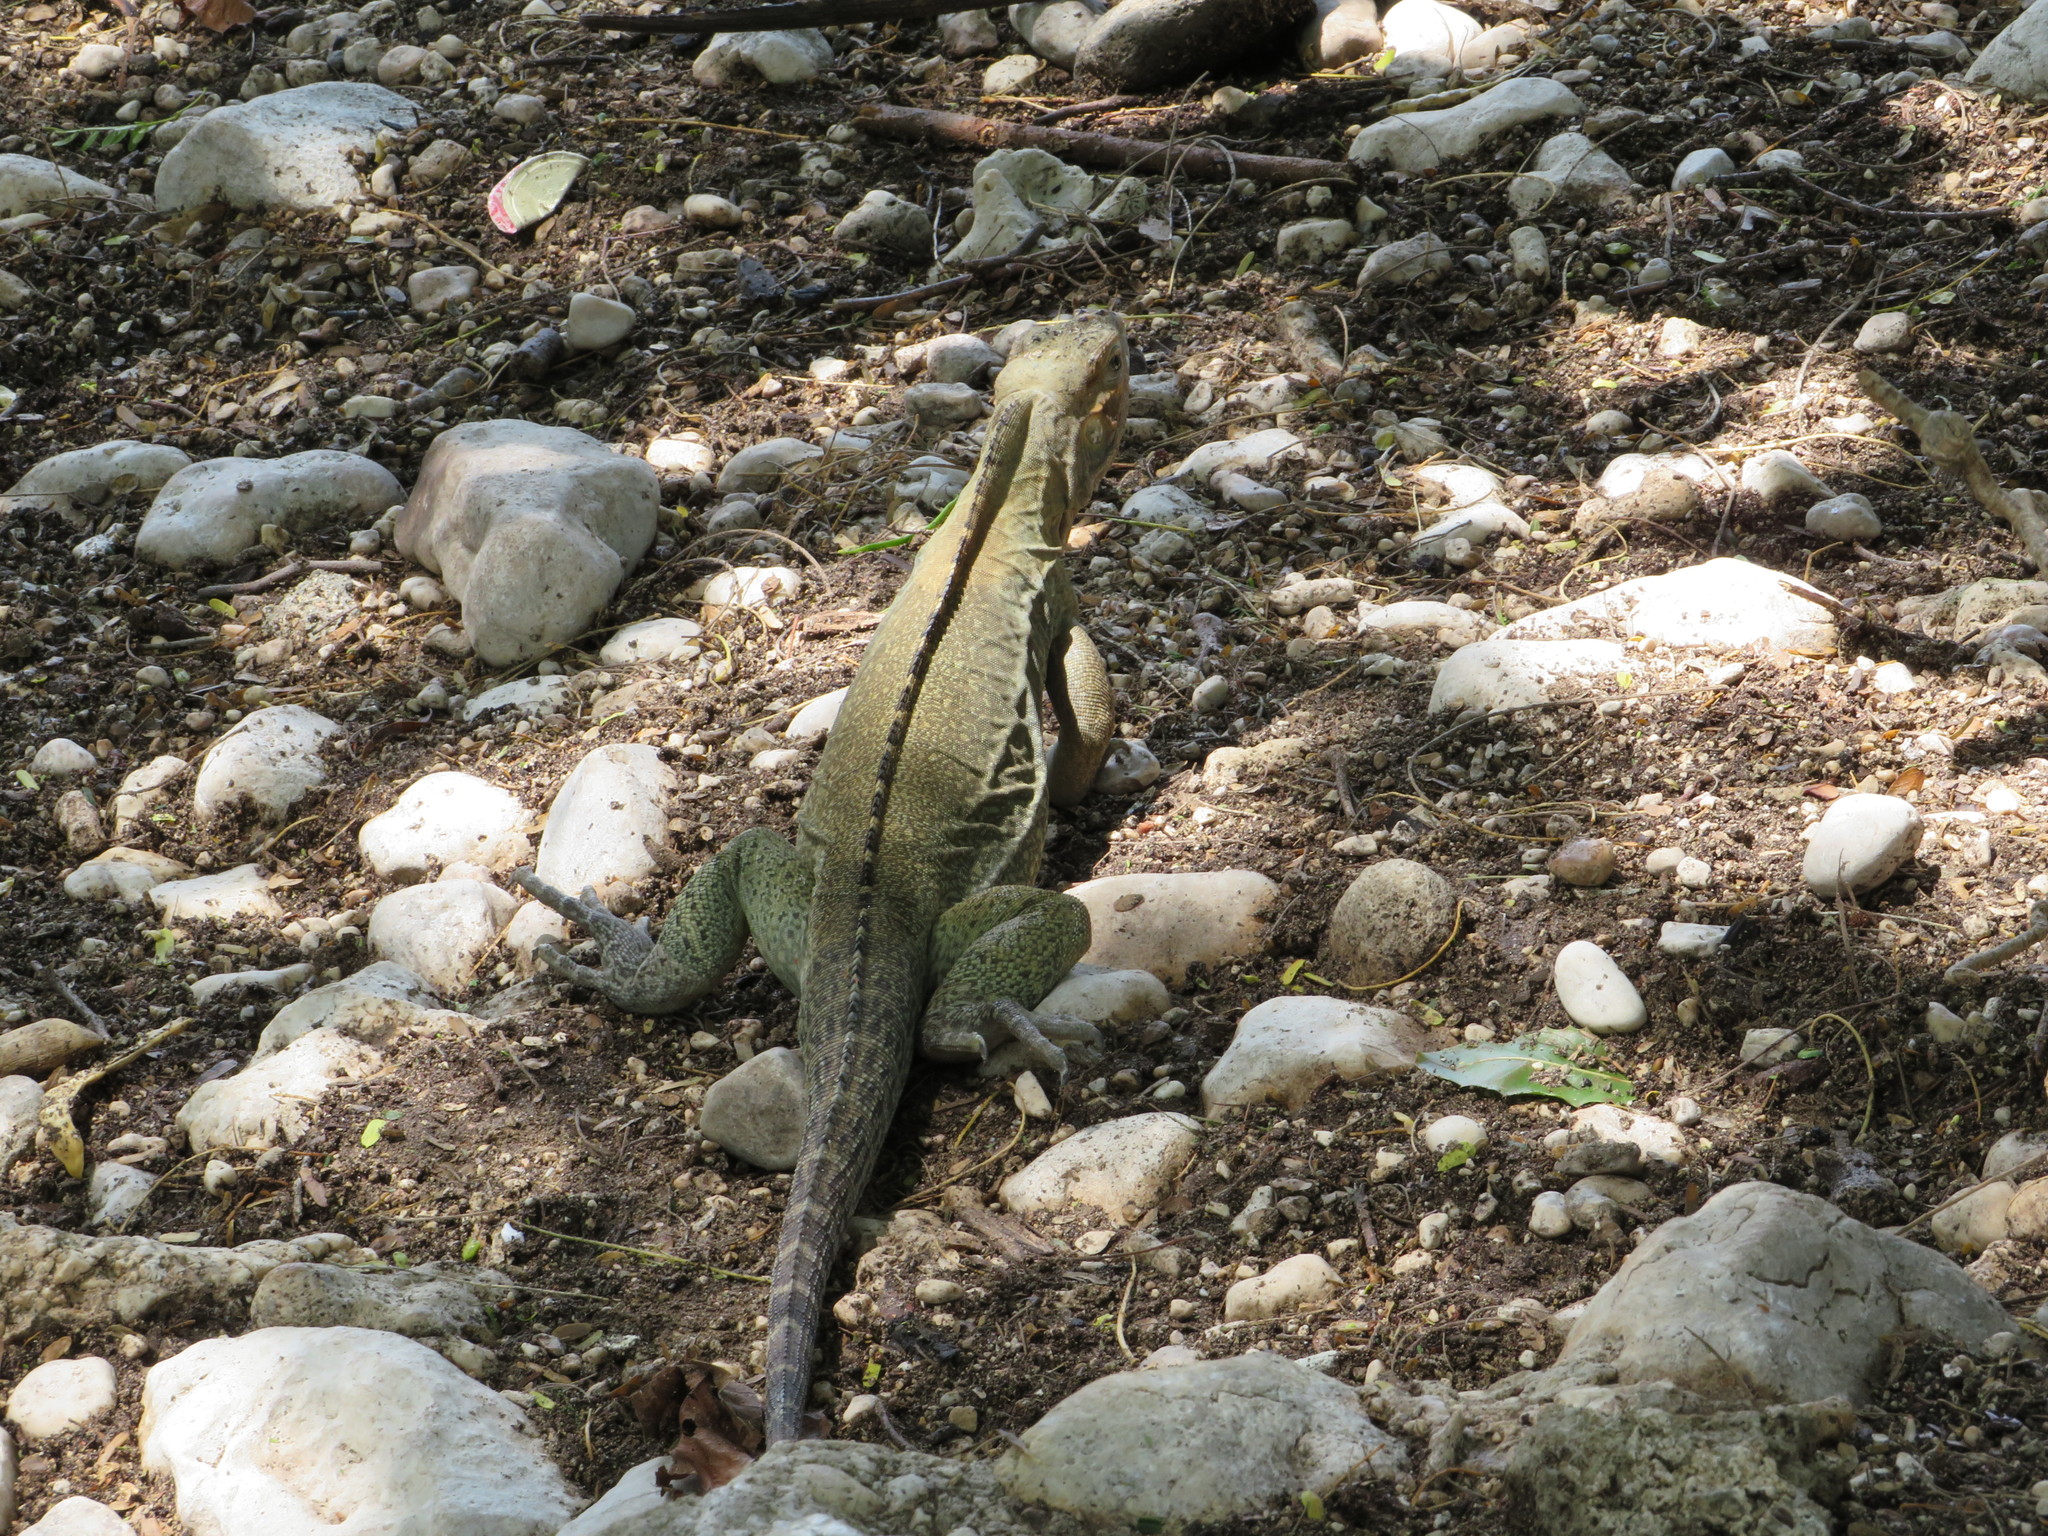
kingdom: Animalia
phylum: Chordata
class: Squamata
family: Iguanidae
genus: Cyclura
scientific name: Cyclura cornuta
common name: Hispaniolan rhinoceros iguana
